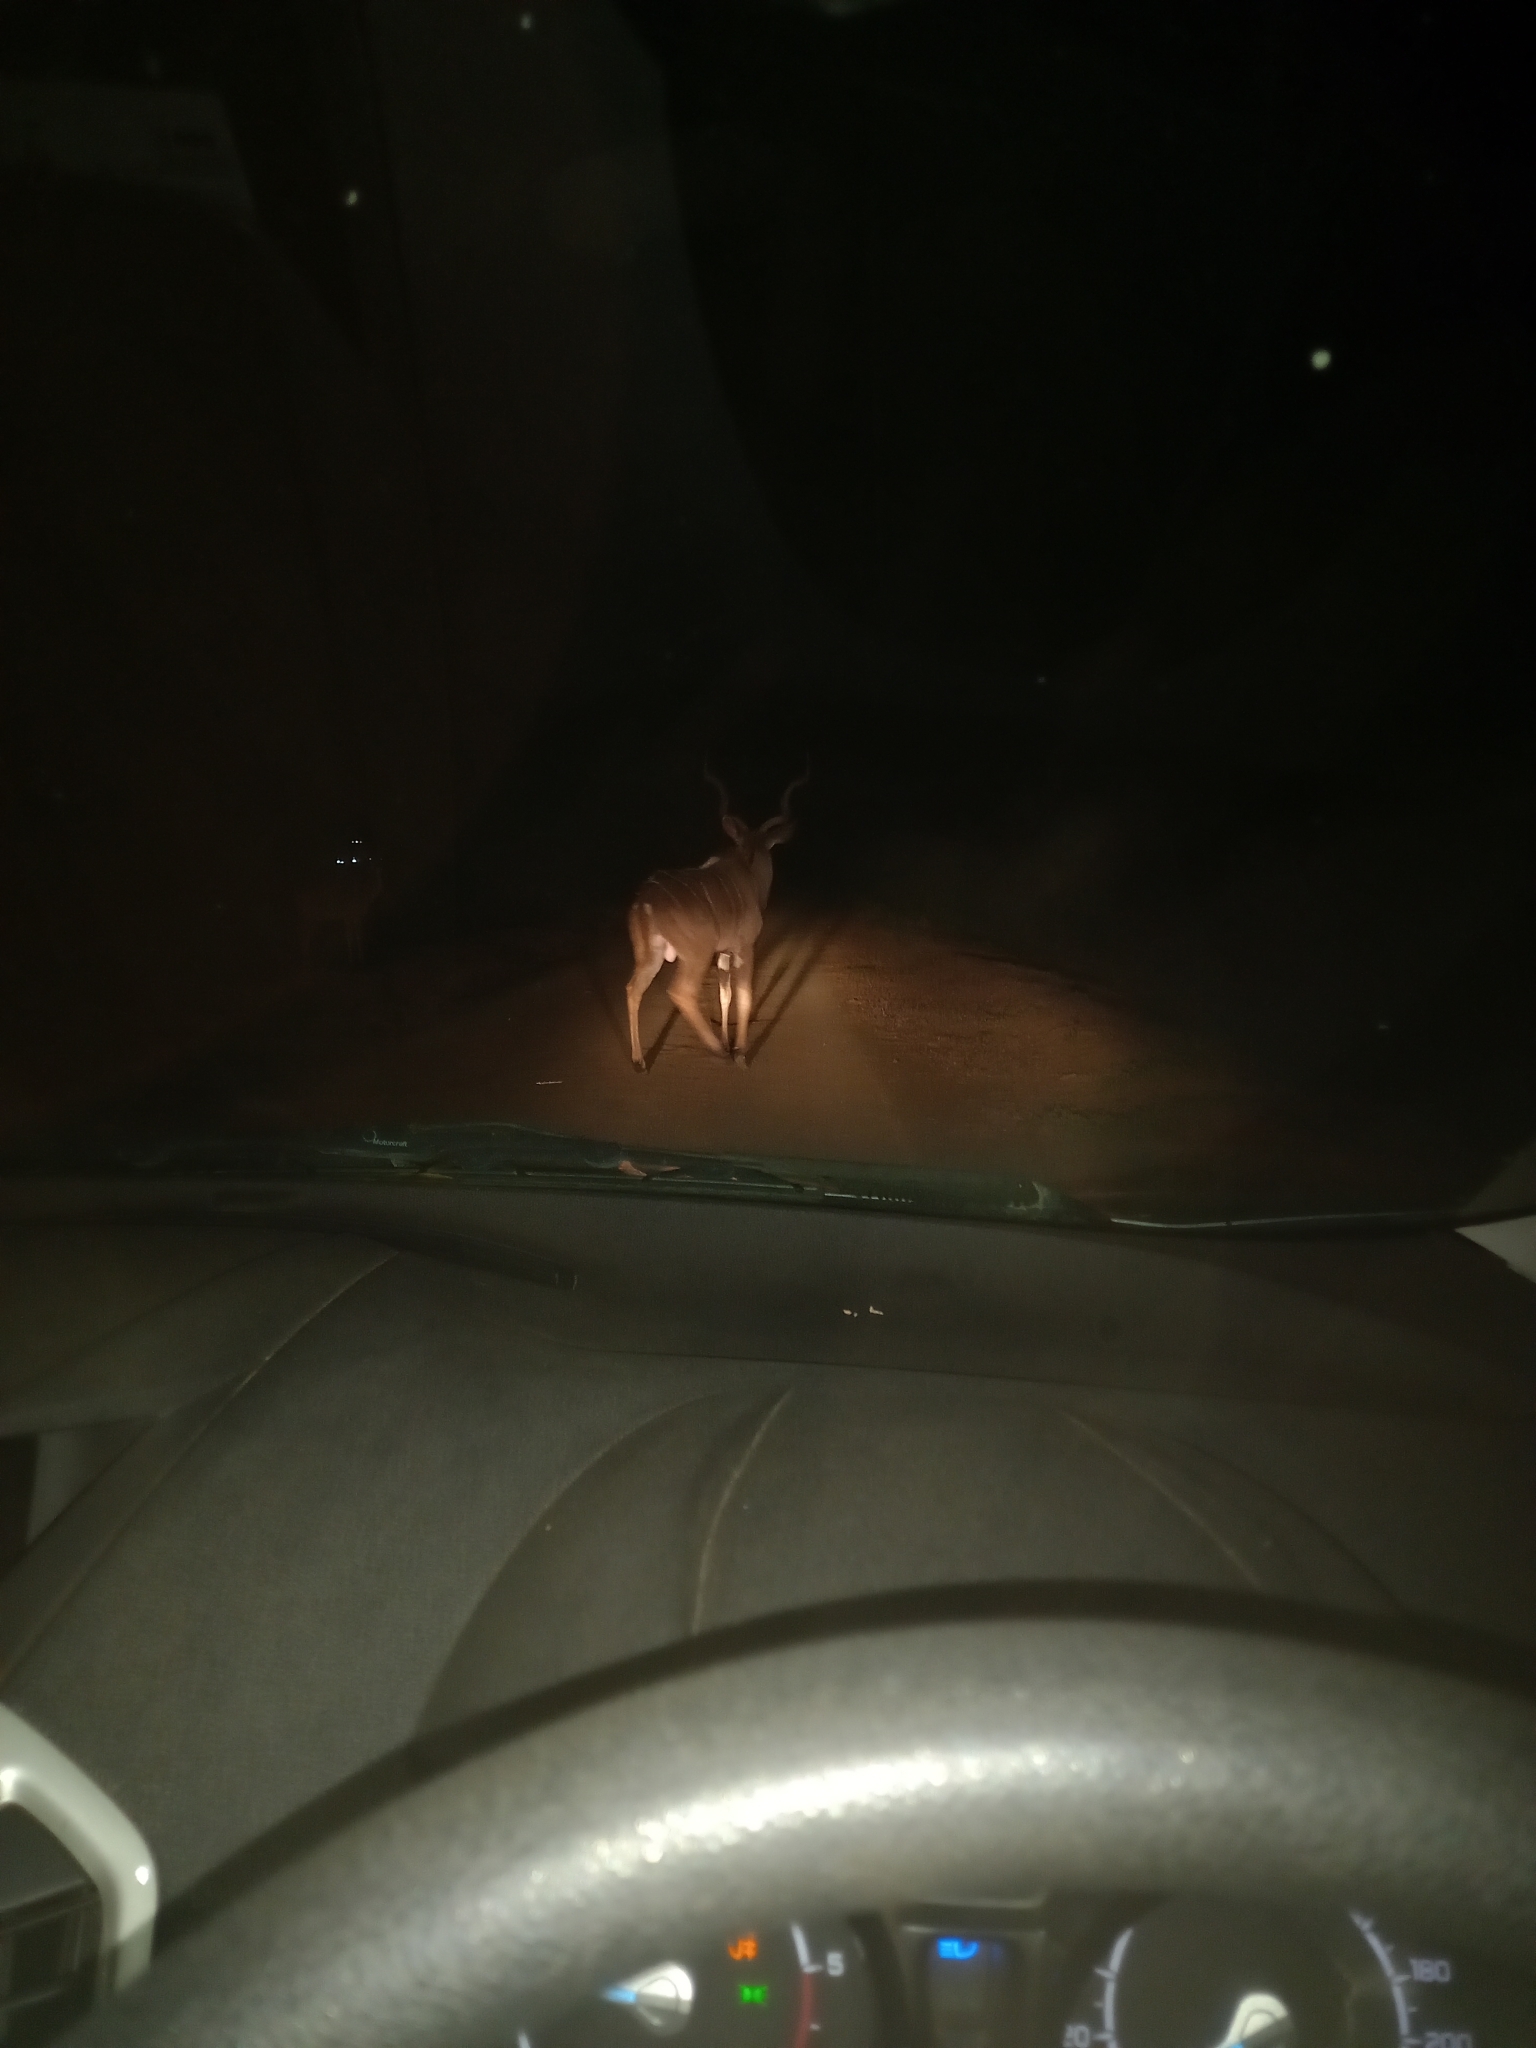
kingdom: Animalia
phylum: Chordata
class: Mammalia
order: Artiodactyla
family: Bovidae
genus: Tragelaphus
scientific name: Tragelaphus strepsiceros
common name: Greater kudu
